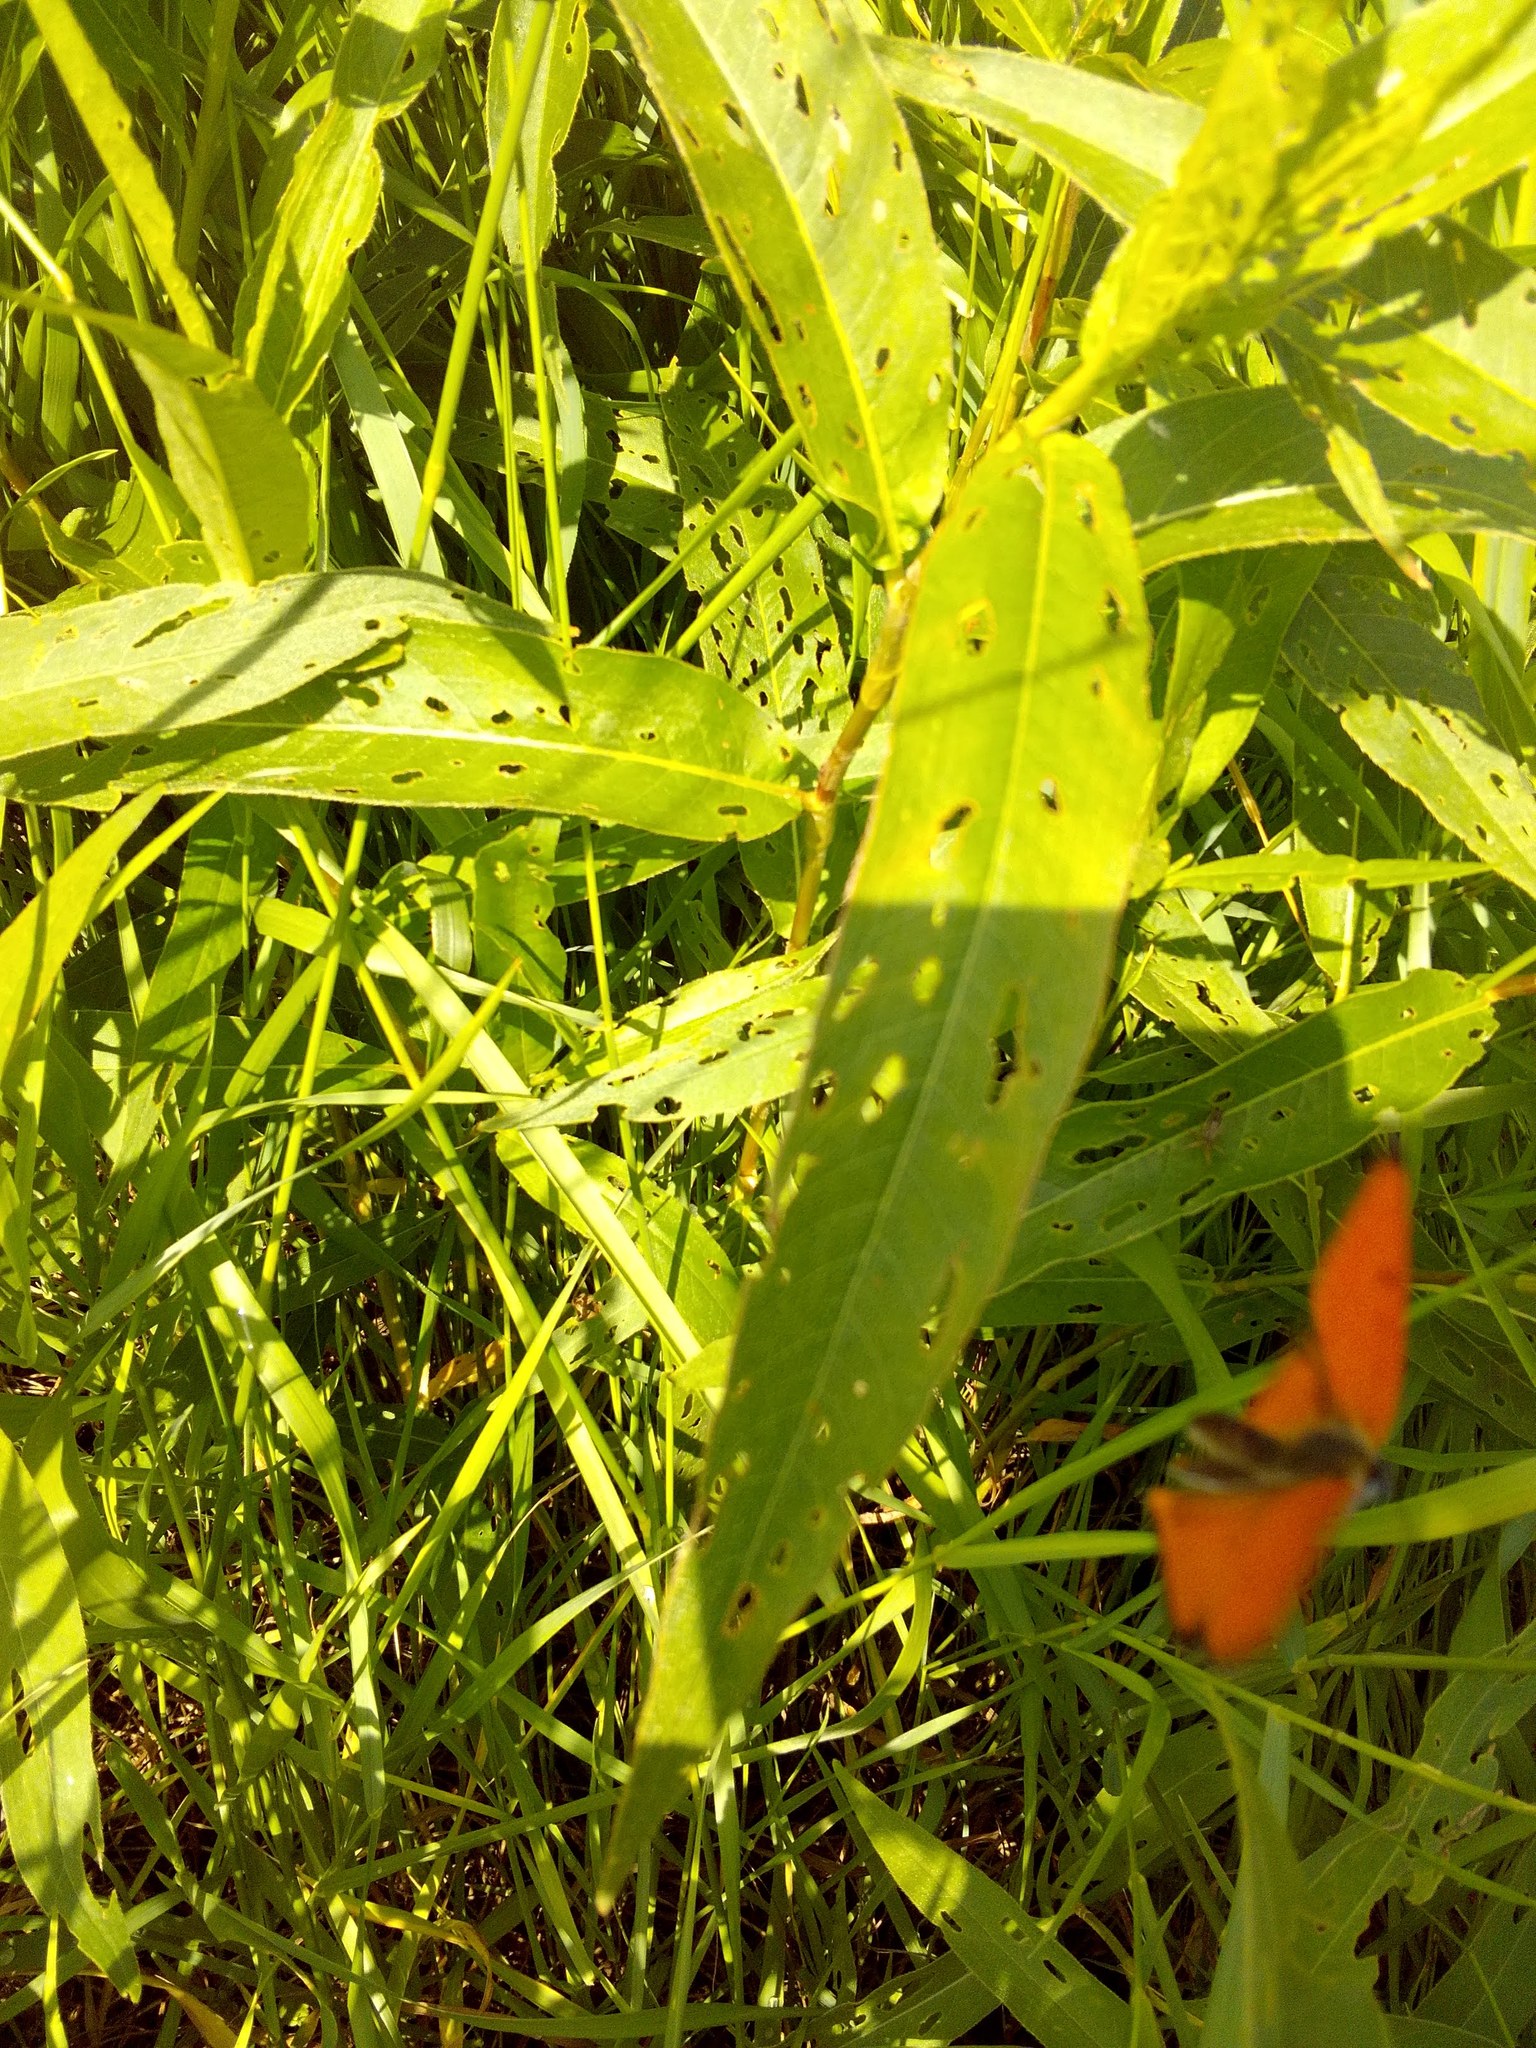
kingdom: Animalia
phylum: Arthropoda
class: Insecta
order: Lepidoptera
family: Lycaenidae
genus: Lycaena
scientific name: Lycaena dispar
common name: Large copper
